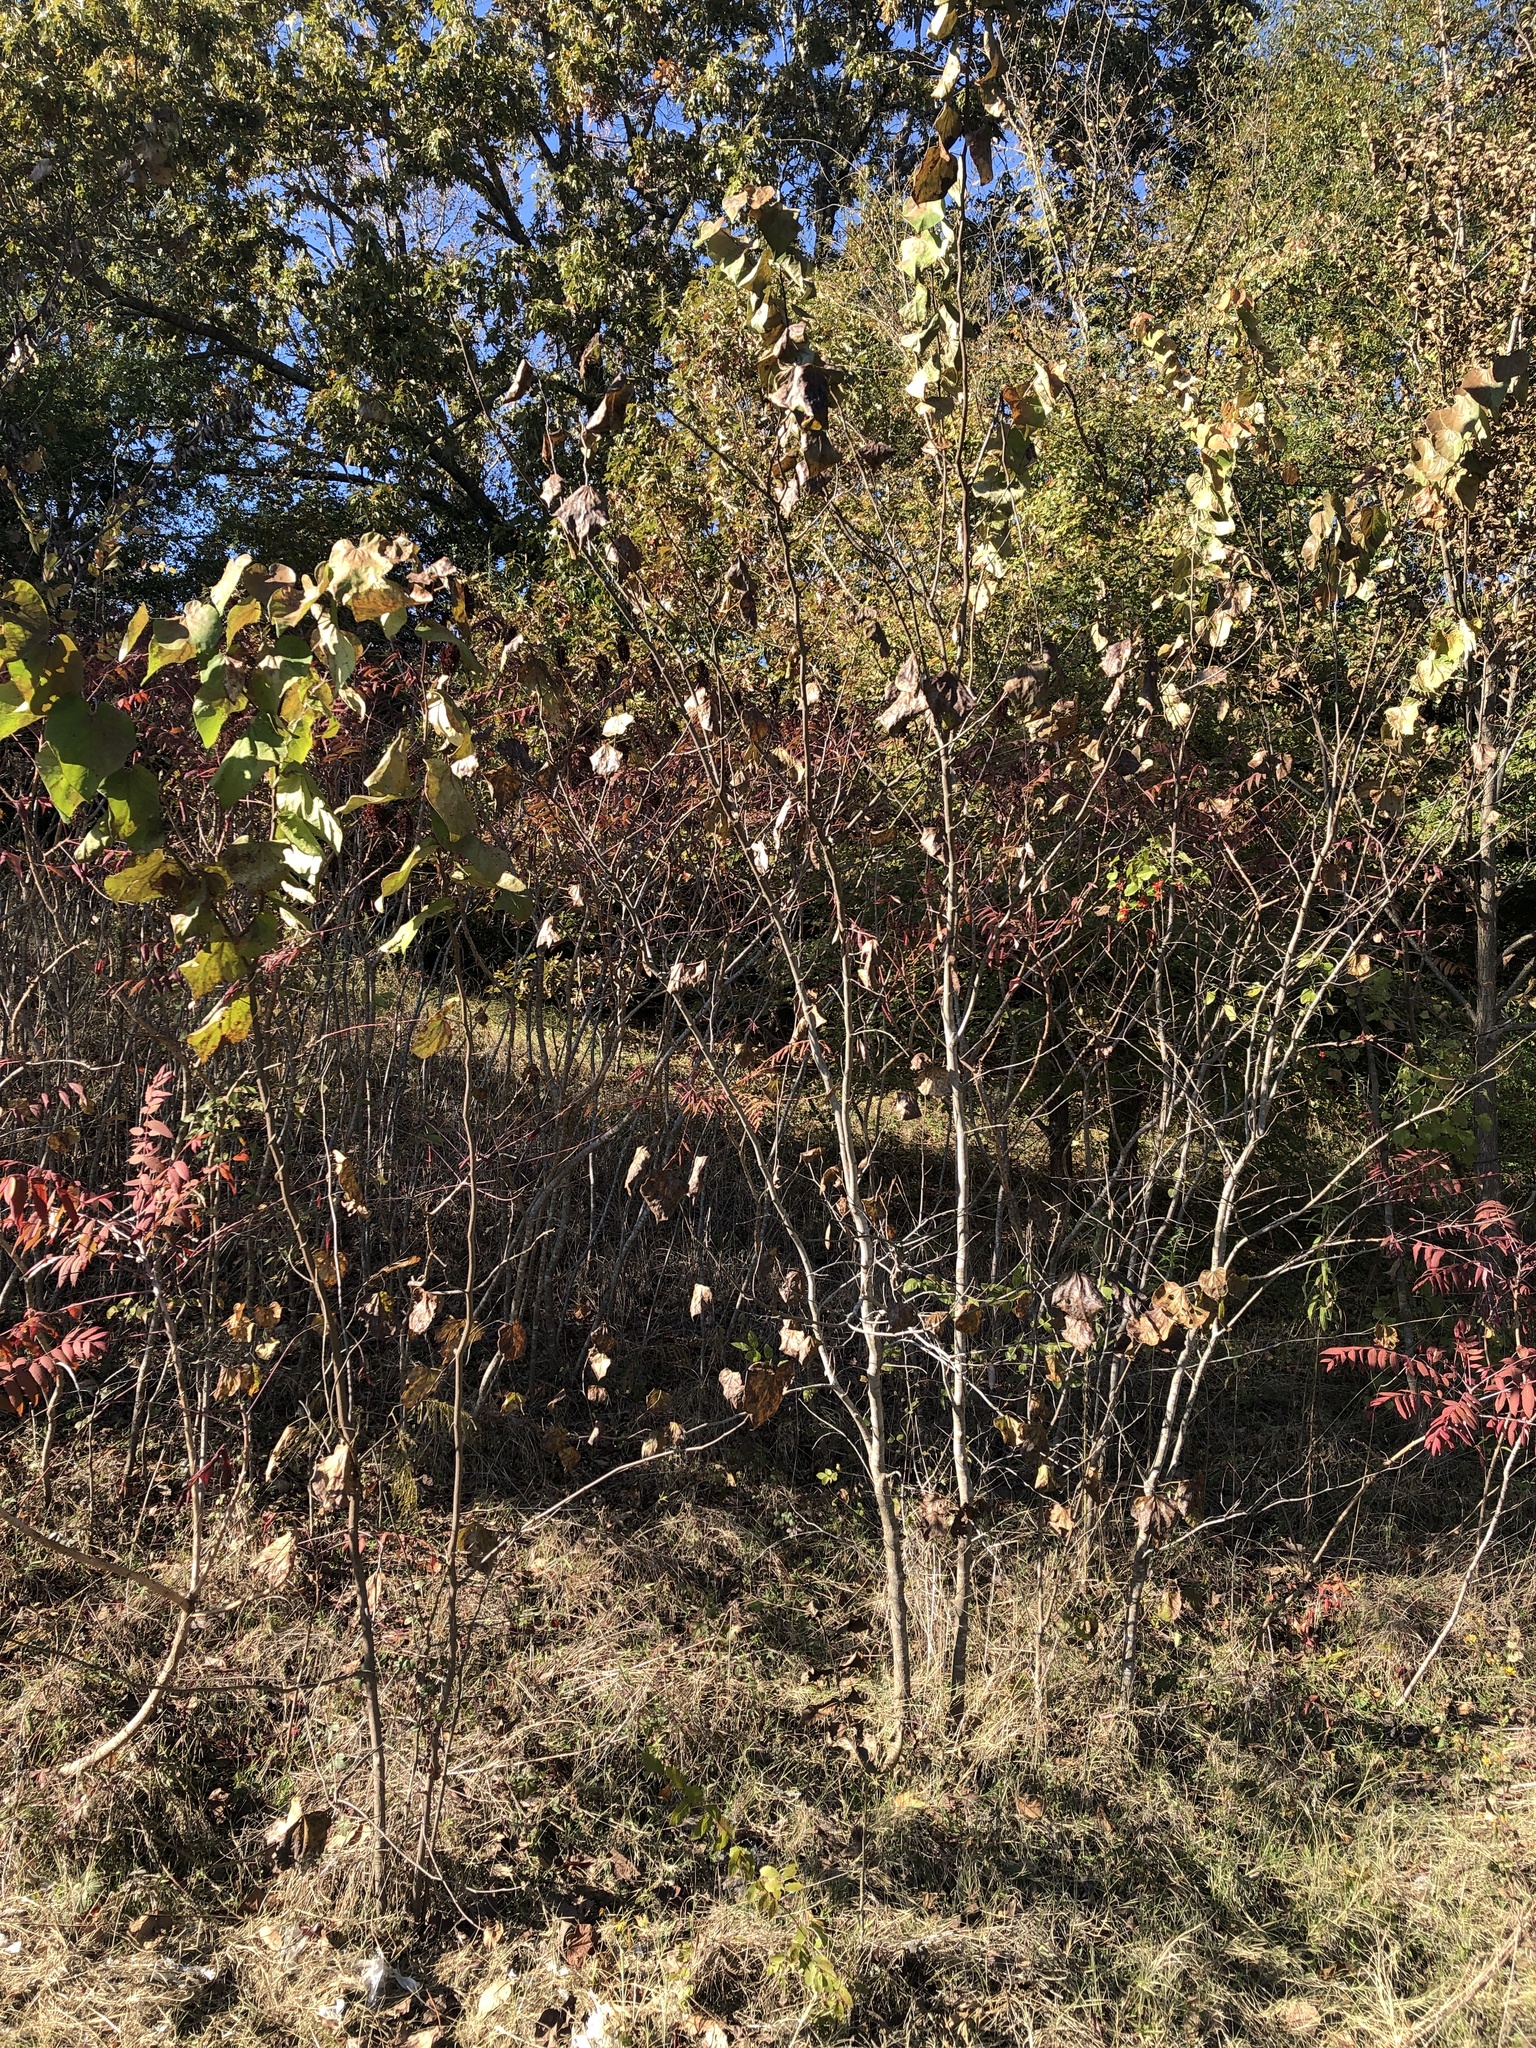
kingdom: Plantae
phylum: Tracheophyta
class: Magnoliopsida
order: Fabales
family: Fabaceae
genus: Cercis
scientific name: Cercis canadensis
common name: Eastern redbud
